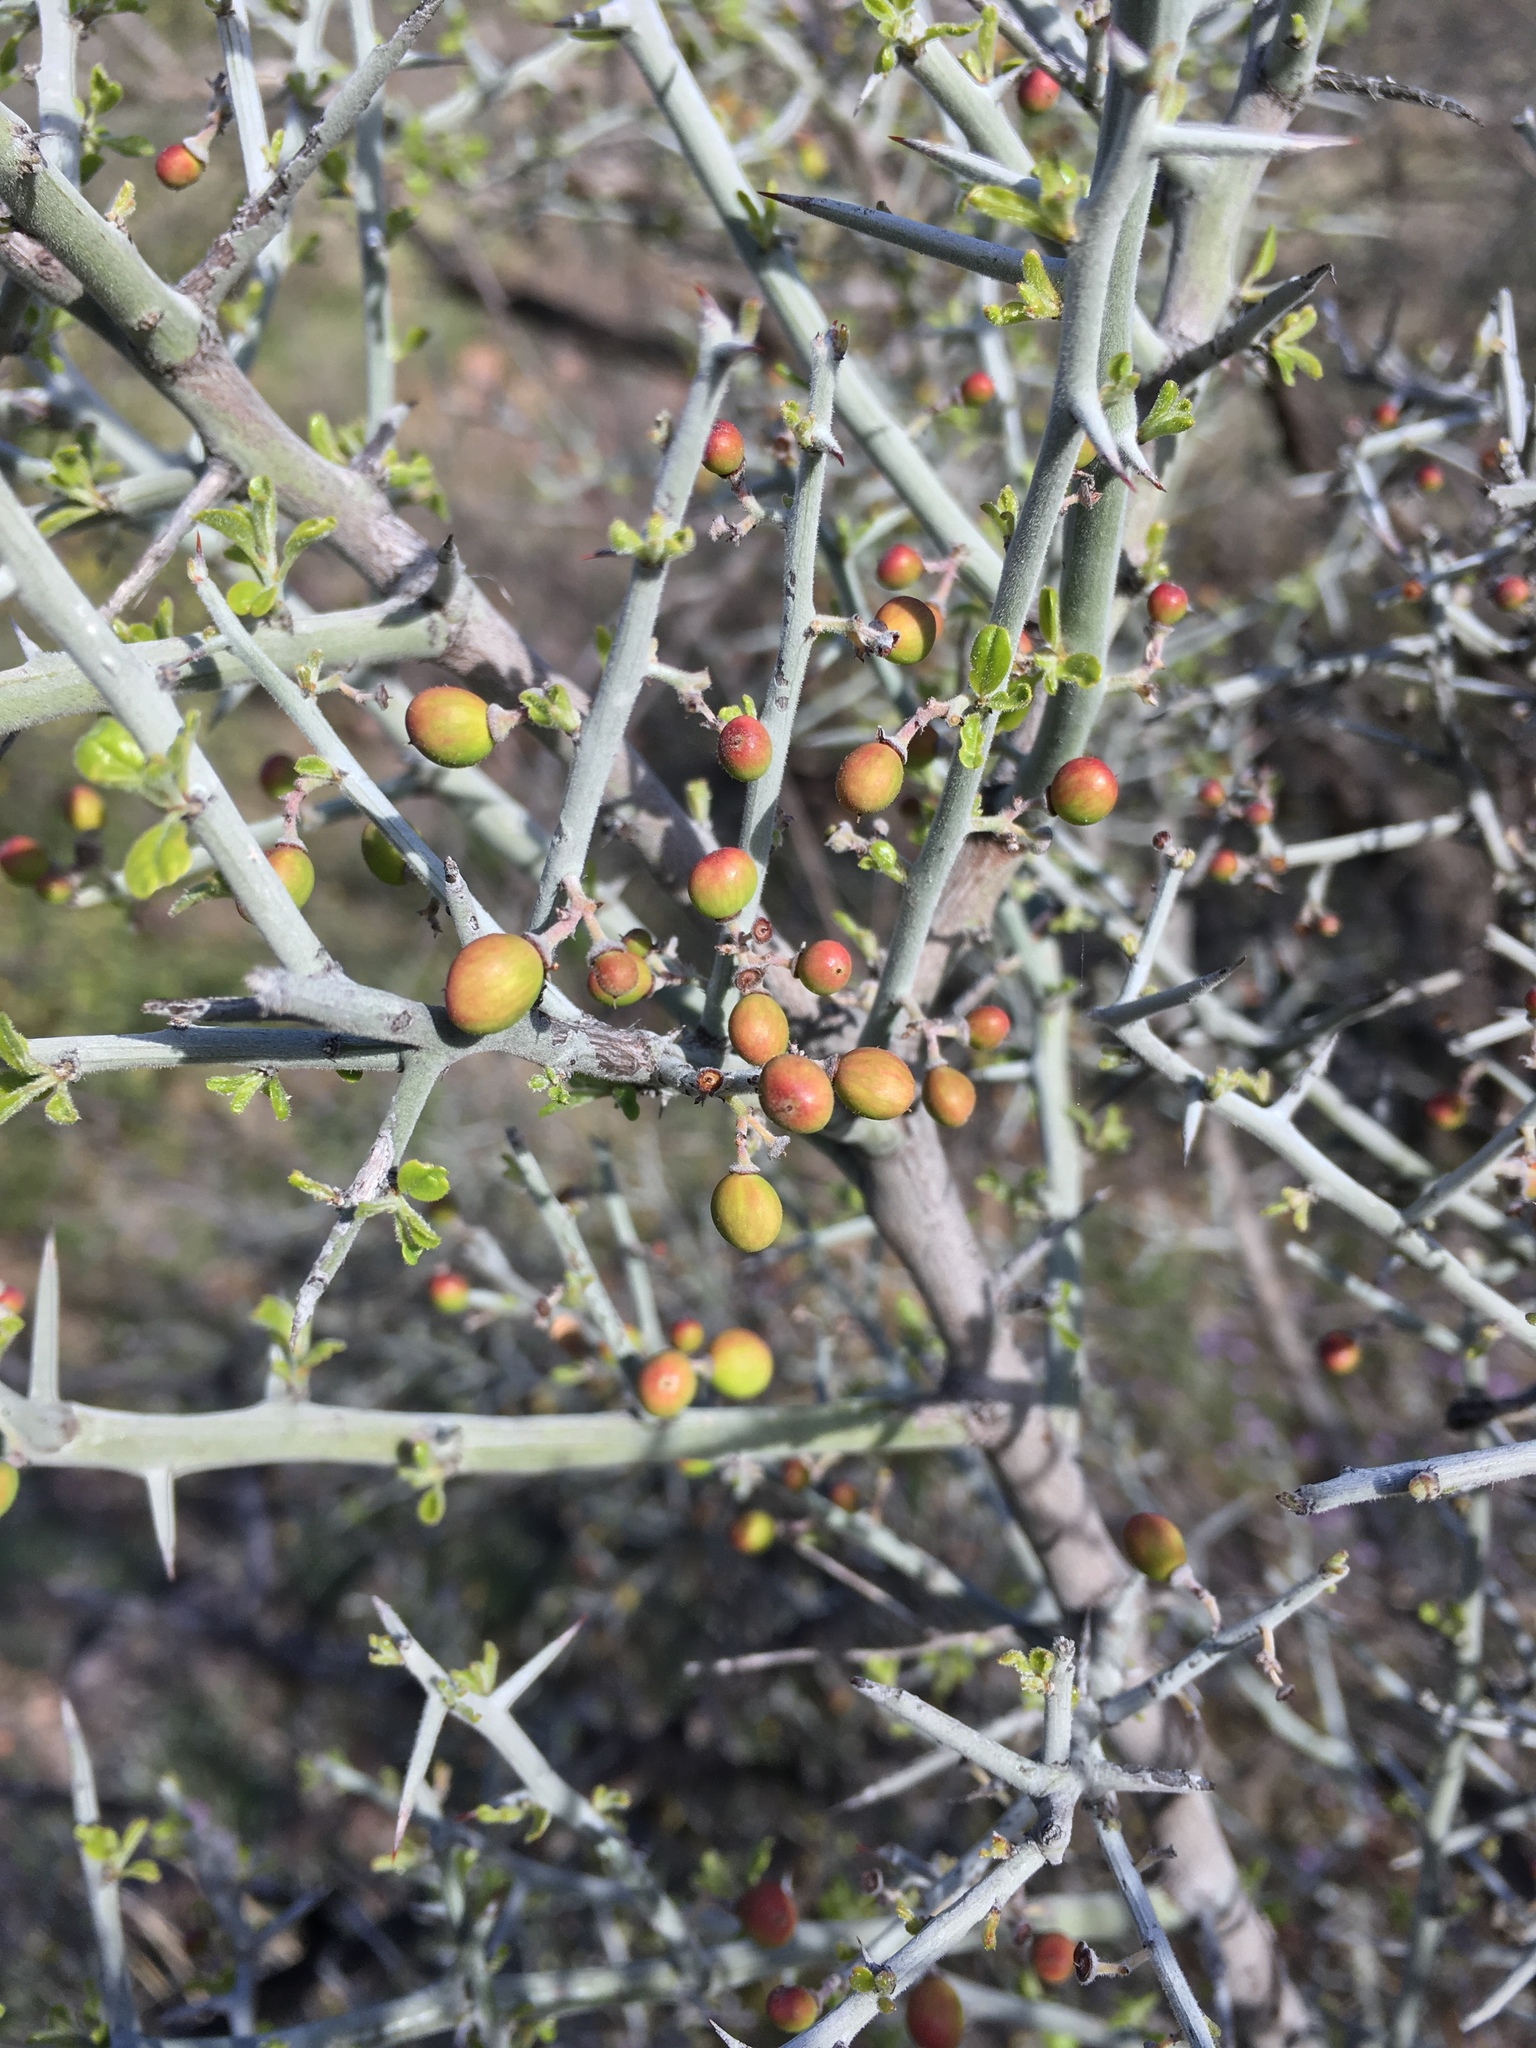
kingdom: Plantae
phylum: Tracheophyta
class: Magnoliopsida
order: Rosales
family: Rhamnaceae
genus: Sarcomphalus
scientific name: Sarcomphalus obtusifolius
